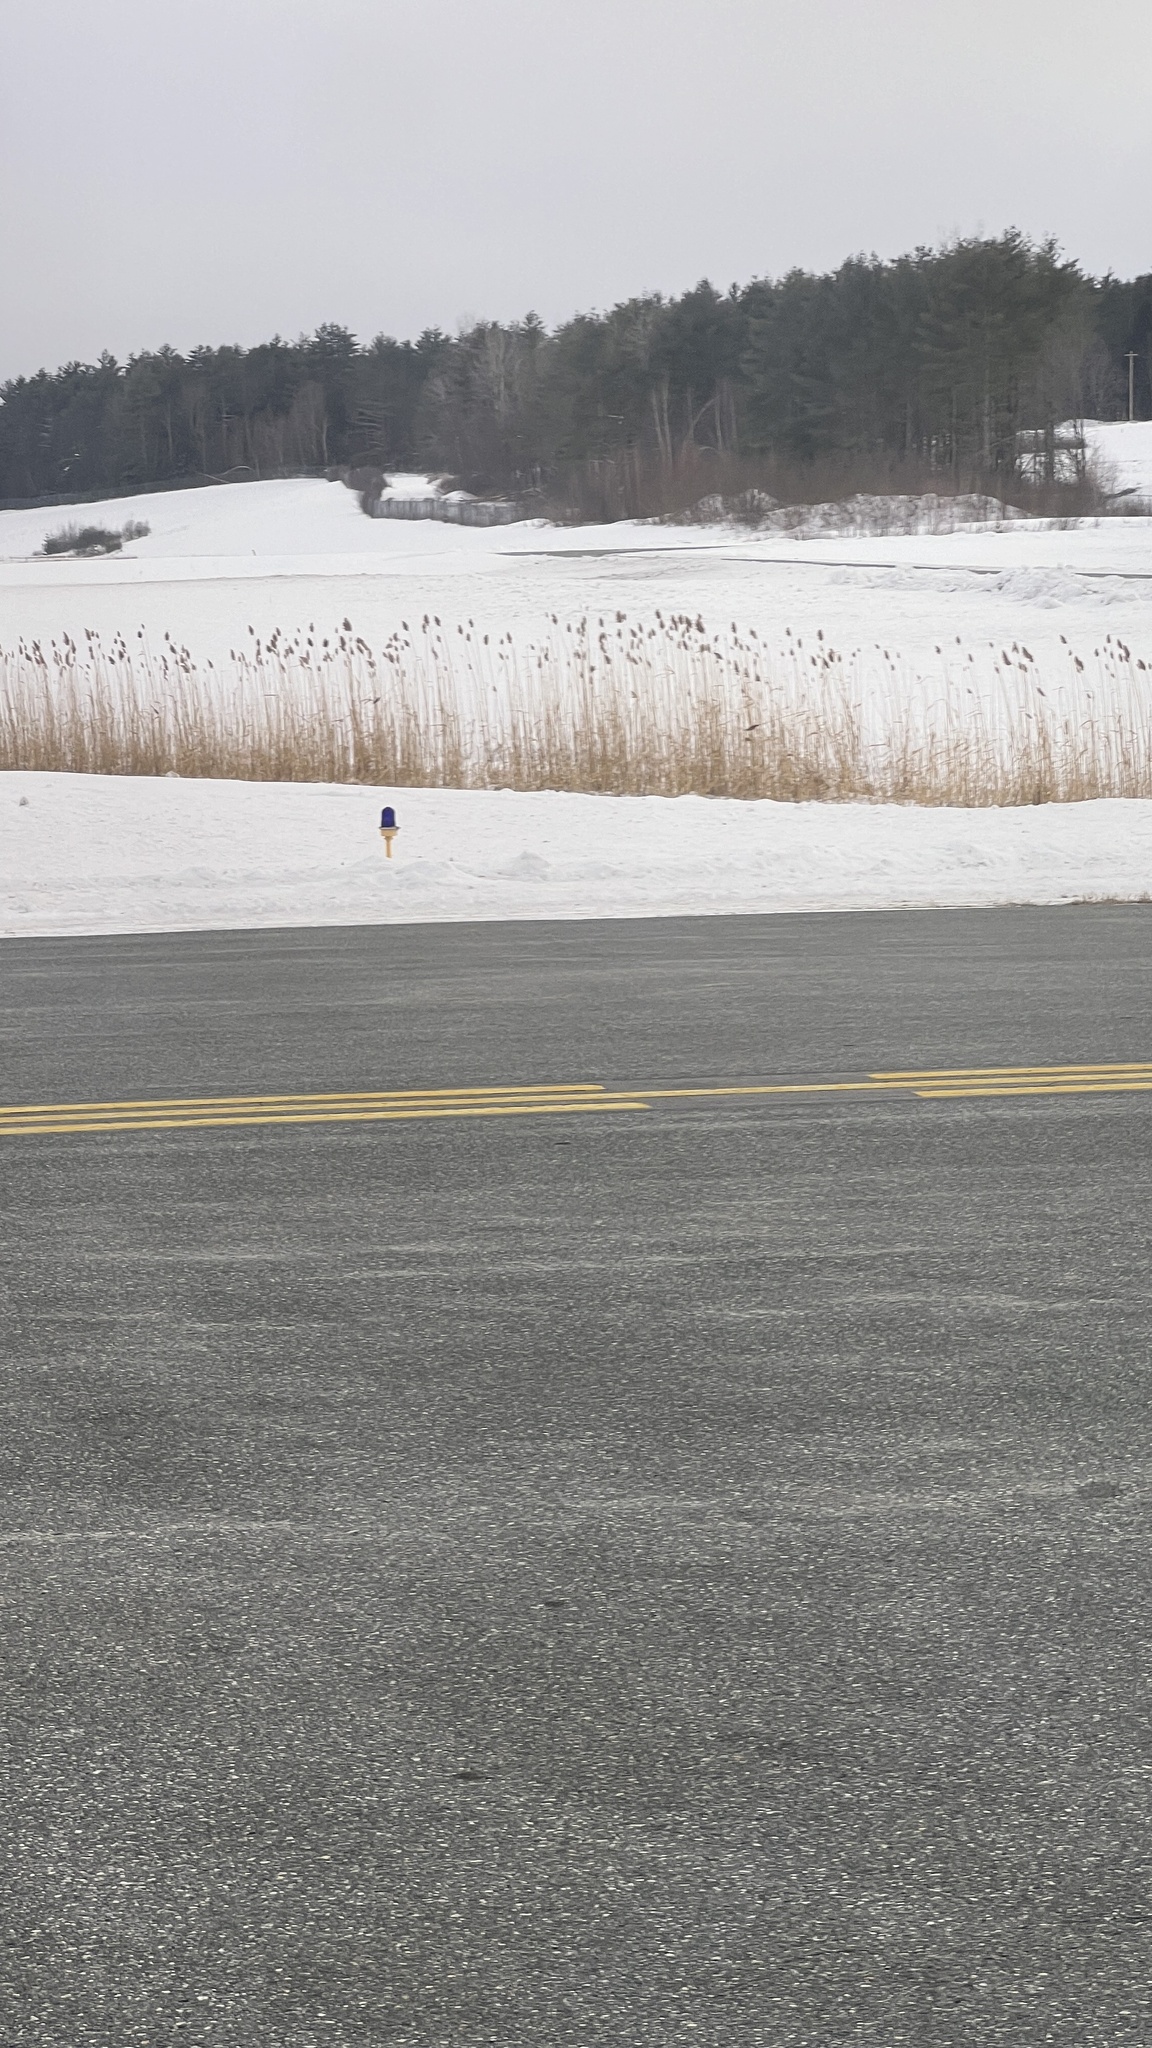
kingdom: Plantae
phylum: Tracheophyta
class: Liliopsida
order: Poales
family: Poaceae
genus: Phragmites
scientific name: Phragmites australis
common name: Common reed
